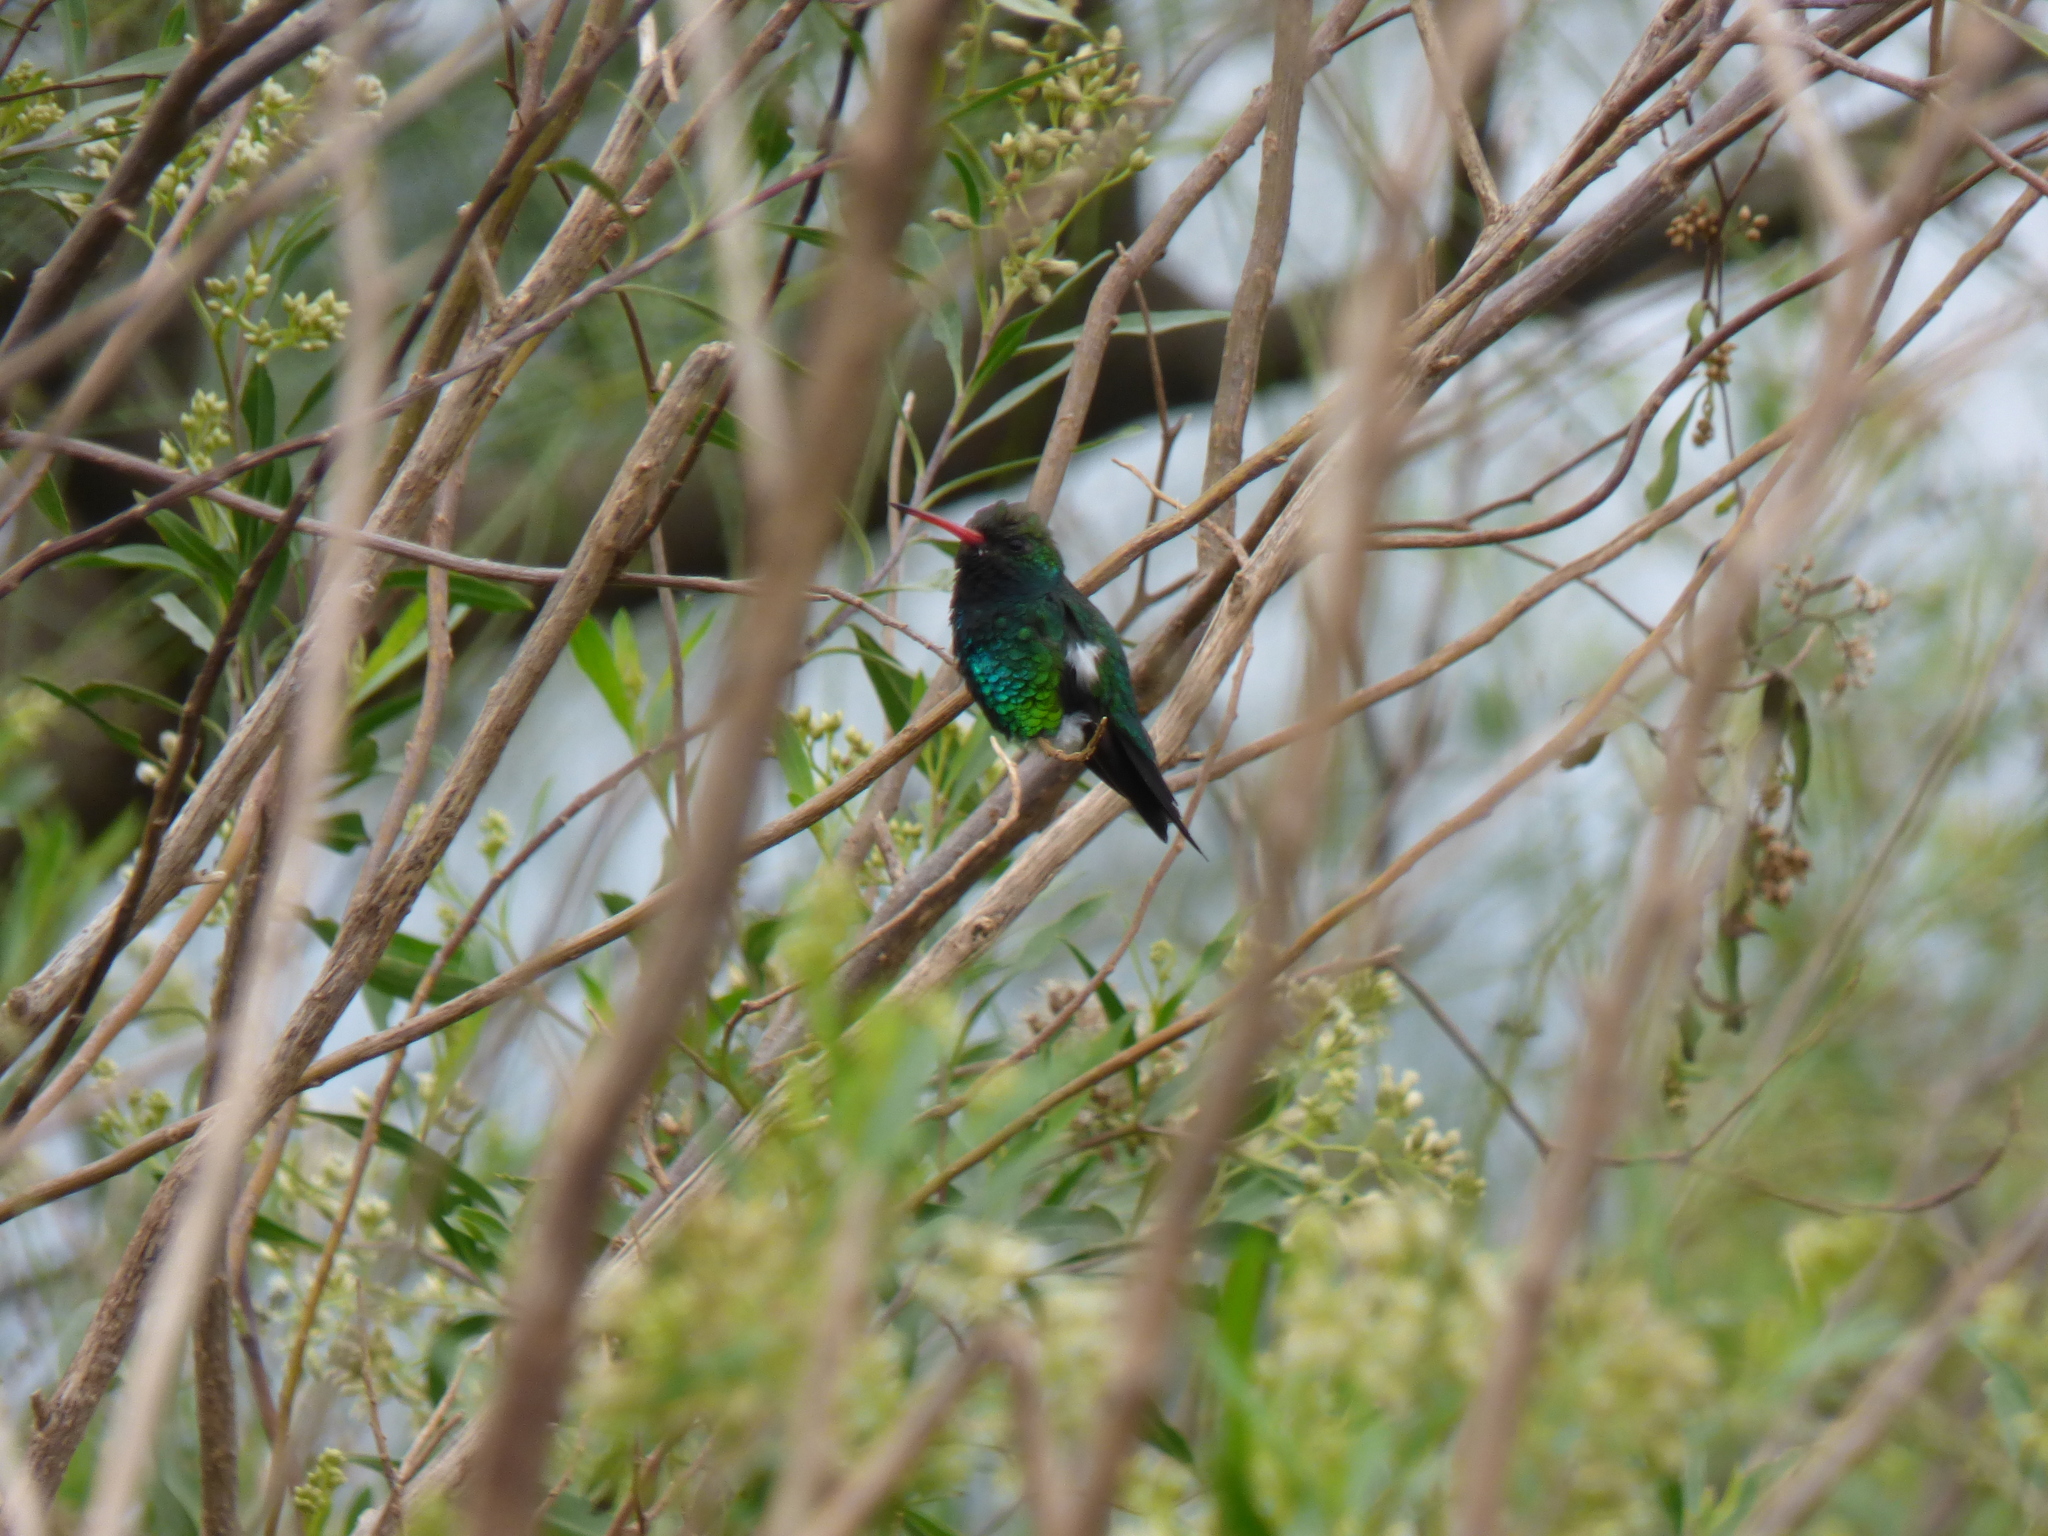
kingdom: Animalia
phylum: Chordata
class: Aves
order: Apodiformes
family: Trochilidae
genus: Chlorostilbon
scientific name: Chlorostilbon lucidus
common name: Glittering-bellied emerald
